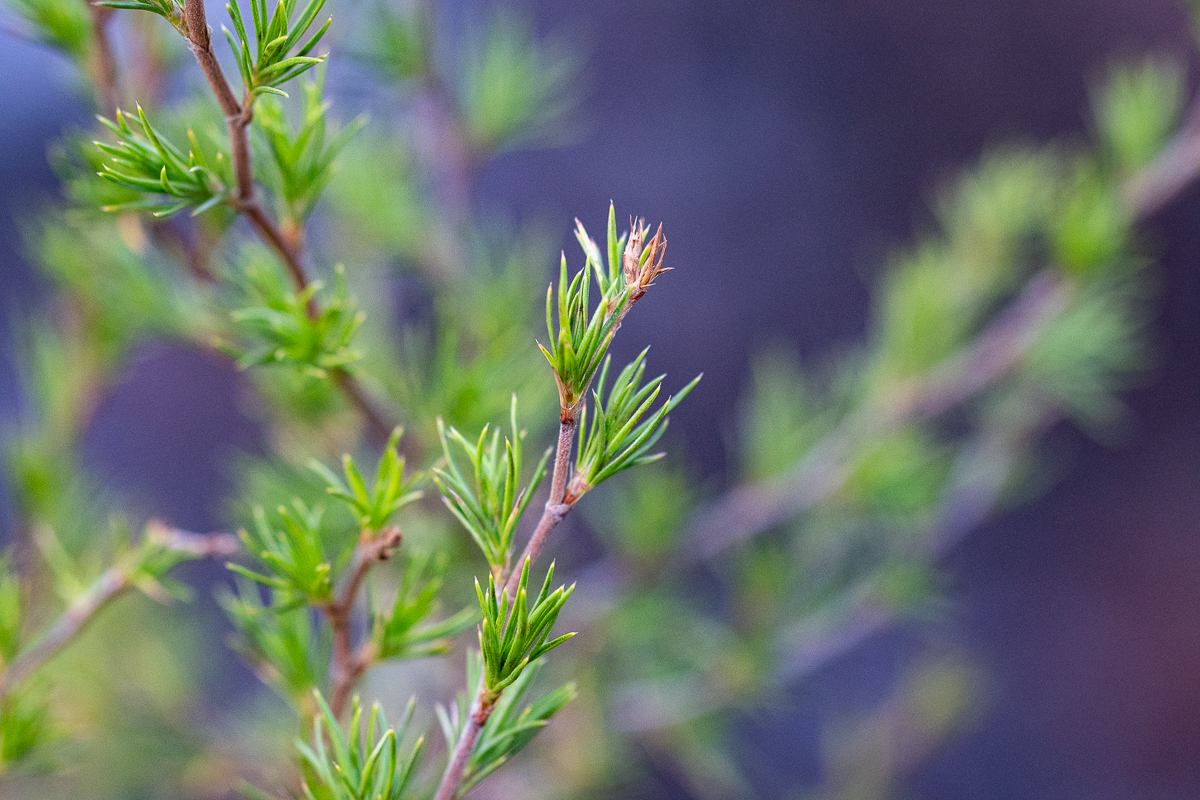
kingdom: Plantae
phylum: Tracheophyta
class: Magnoliopsida
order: Rosales
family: Rosaceae
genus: Cliffortia
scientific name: Cliffortia atrata
